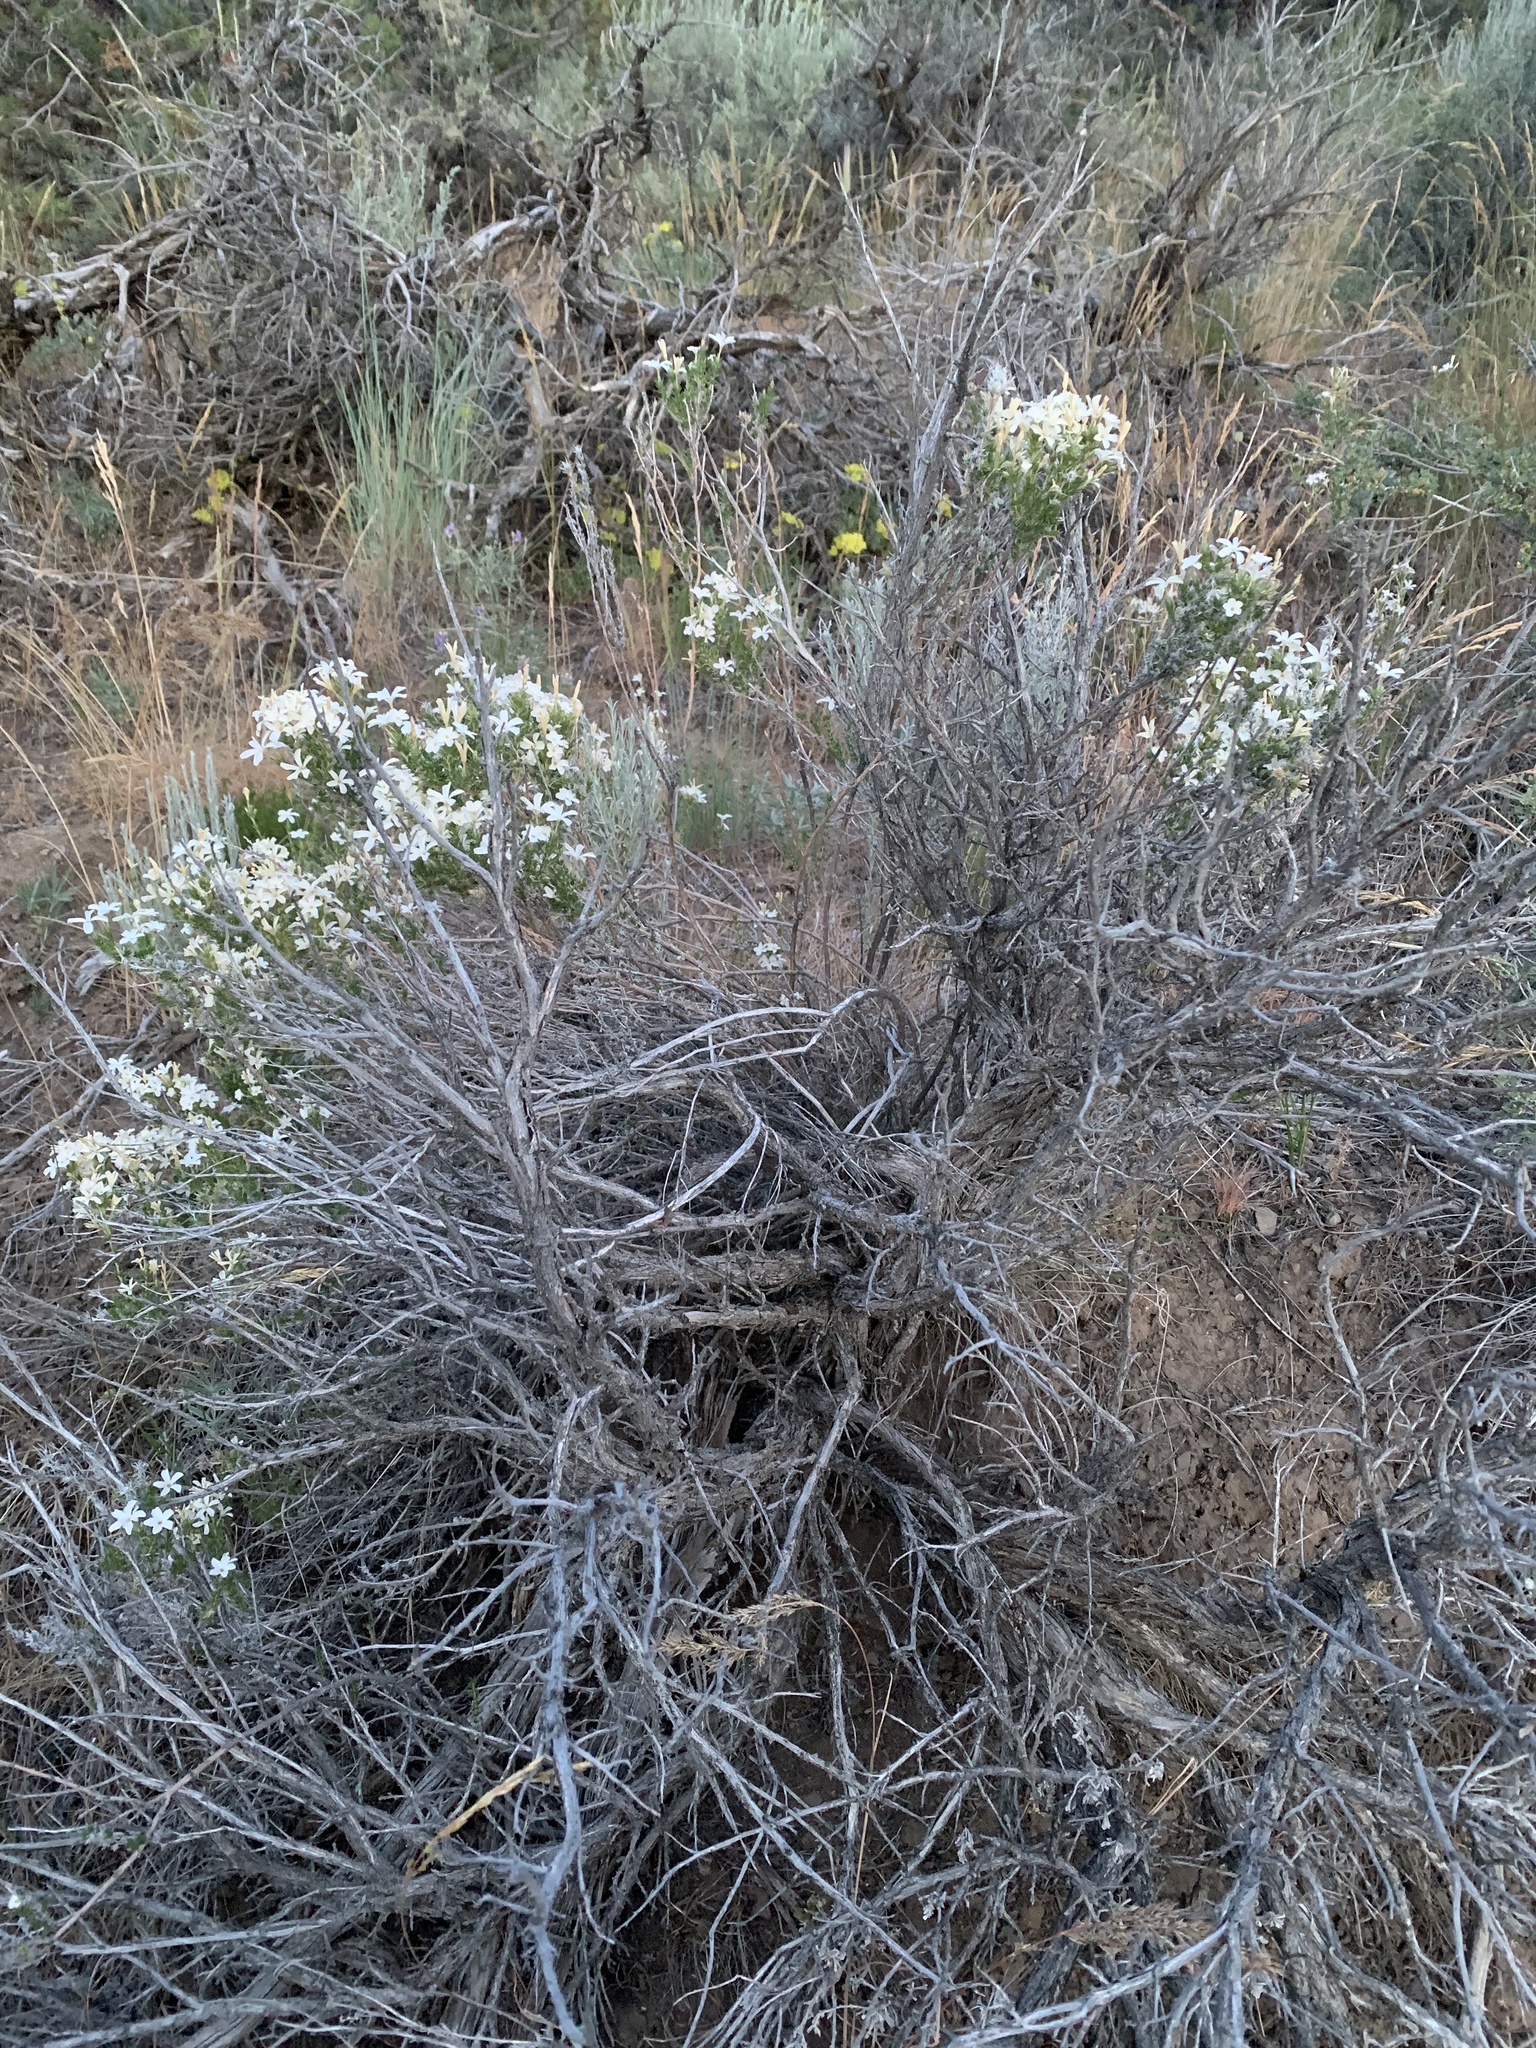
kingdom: Plantae
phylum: Tracheophyta
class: Magnoliopsida
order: Ericales
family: Polemoniaceae
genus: Linanthus
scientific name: Linanthus pungens
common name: Granite prickly phlox
